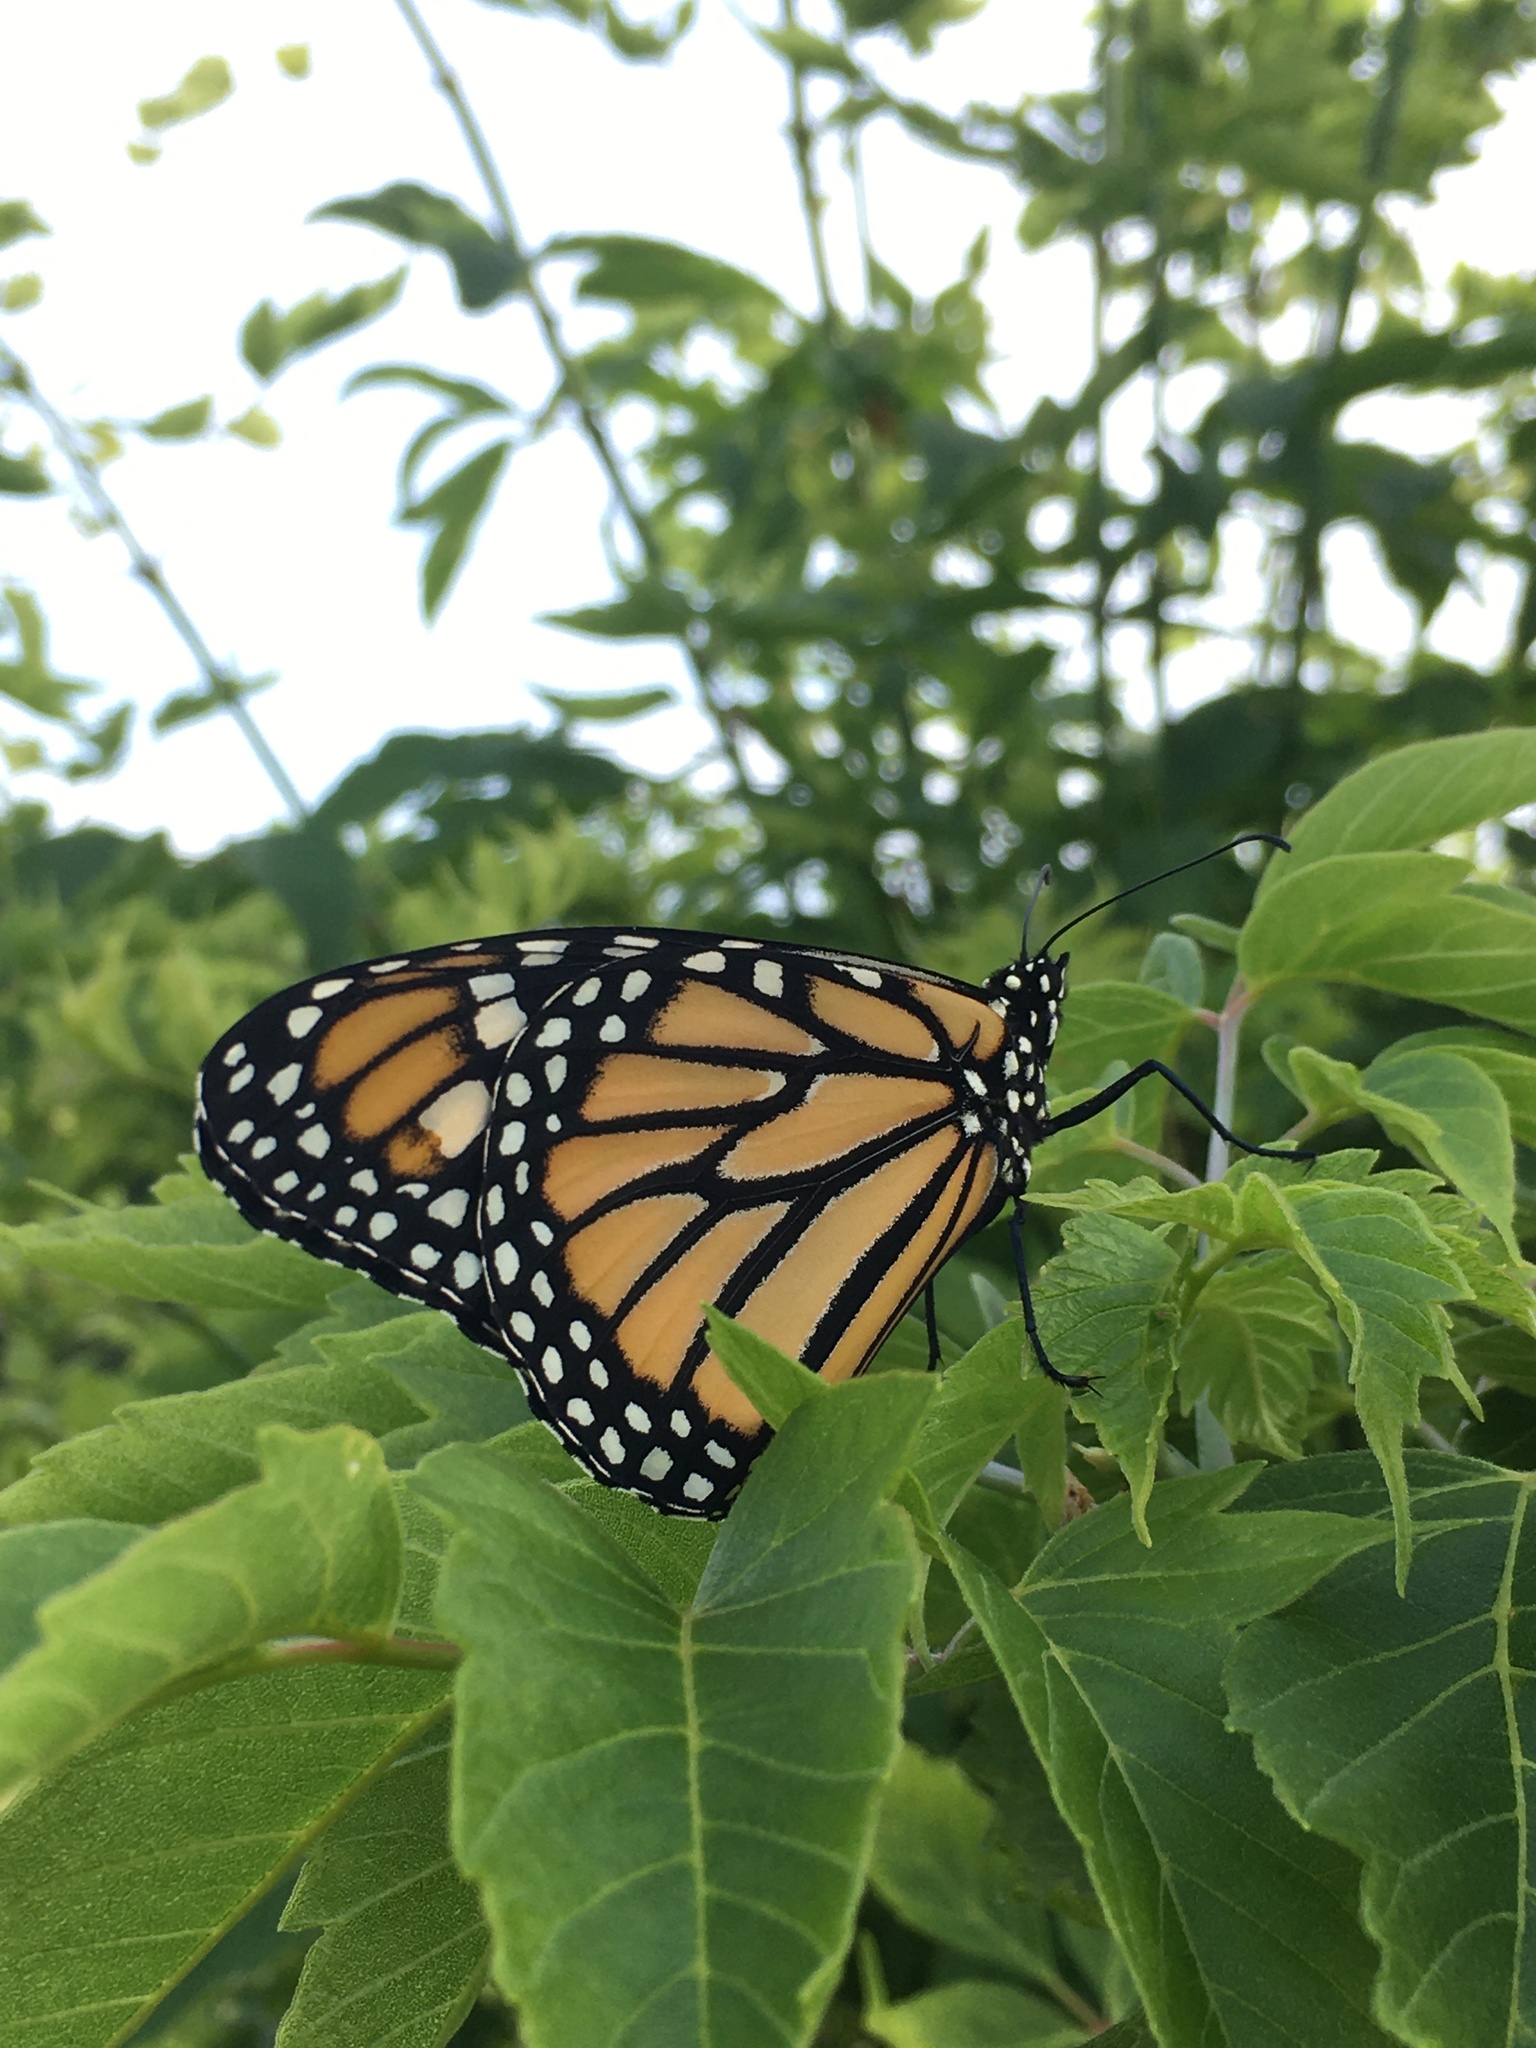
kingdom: Animalia
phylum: Arthropoda
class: Insecta
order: Lepidoptera
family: Nymphalidae
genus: Danaus
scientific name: Danaus plexippus
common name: Monarch
